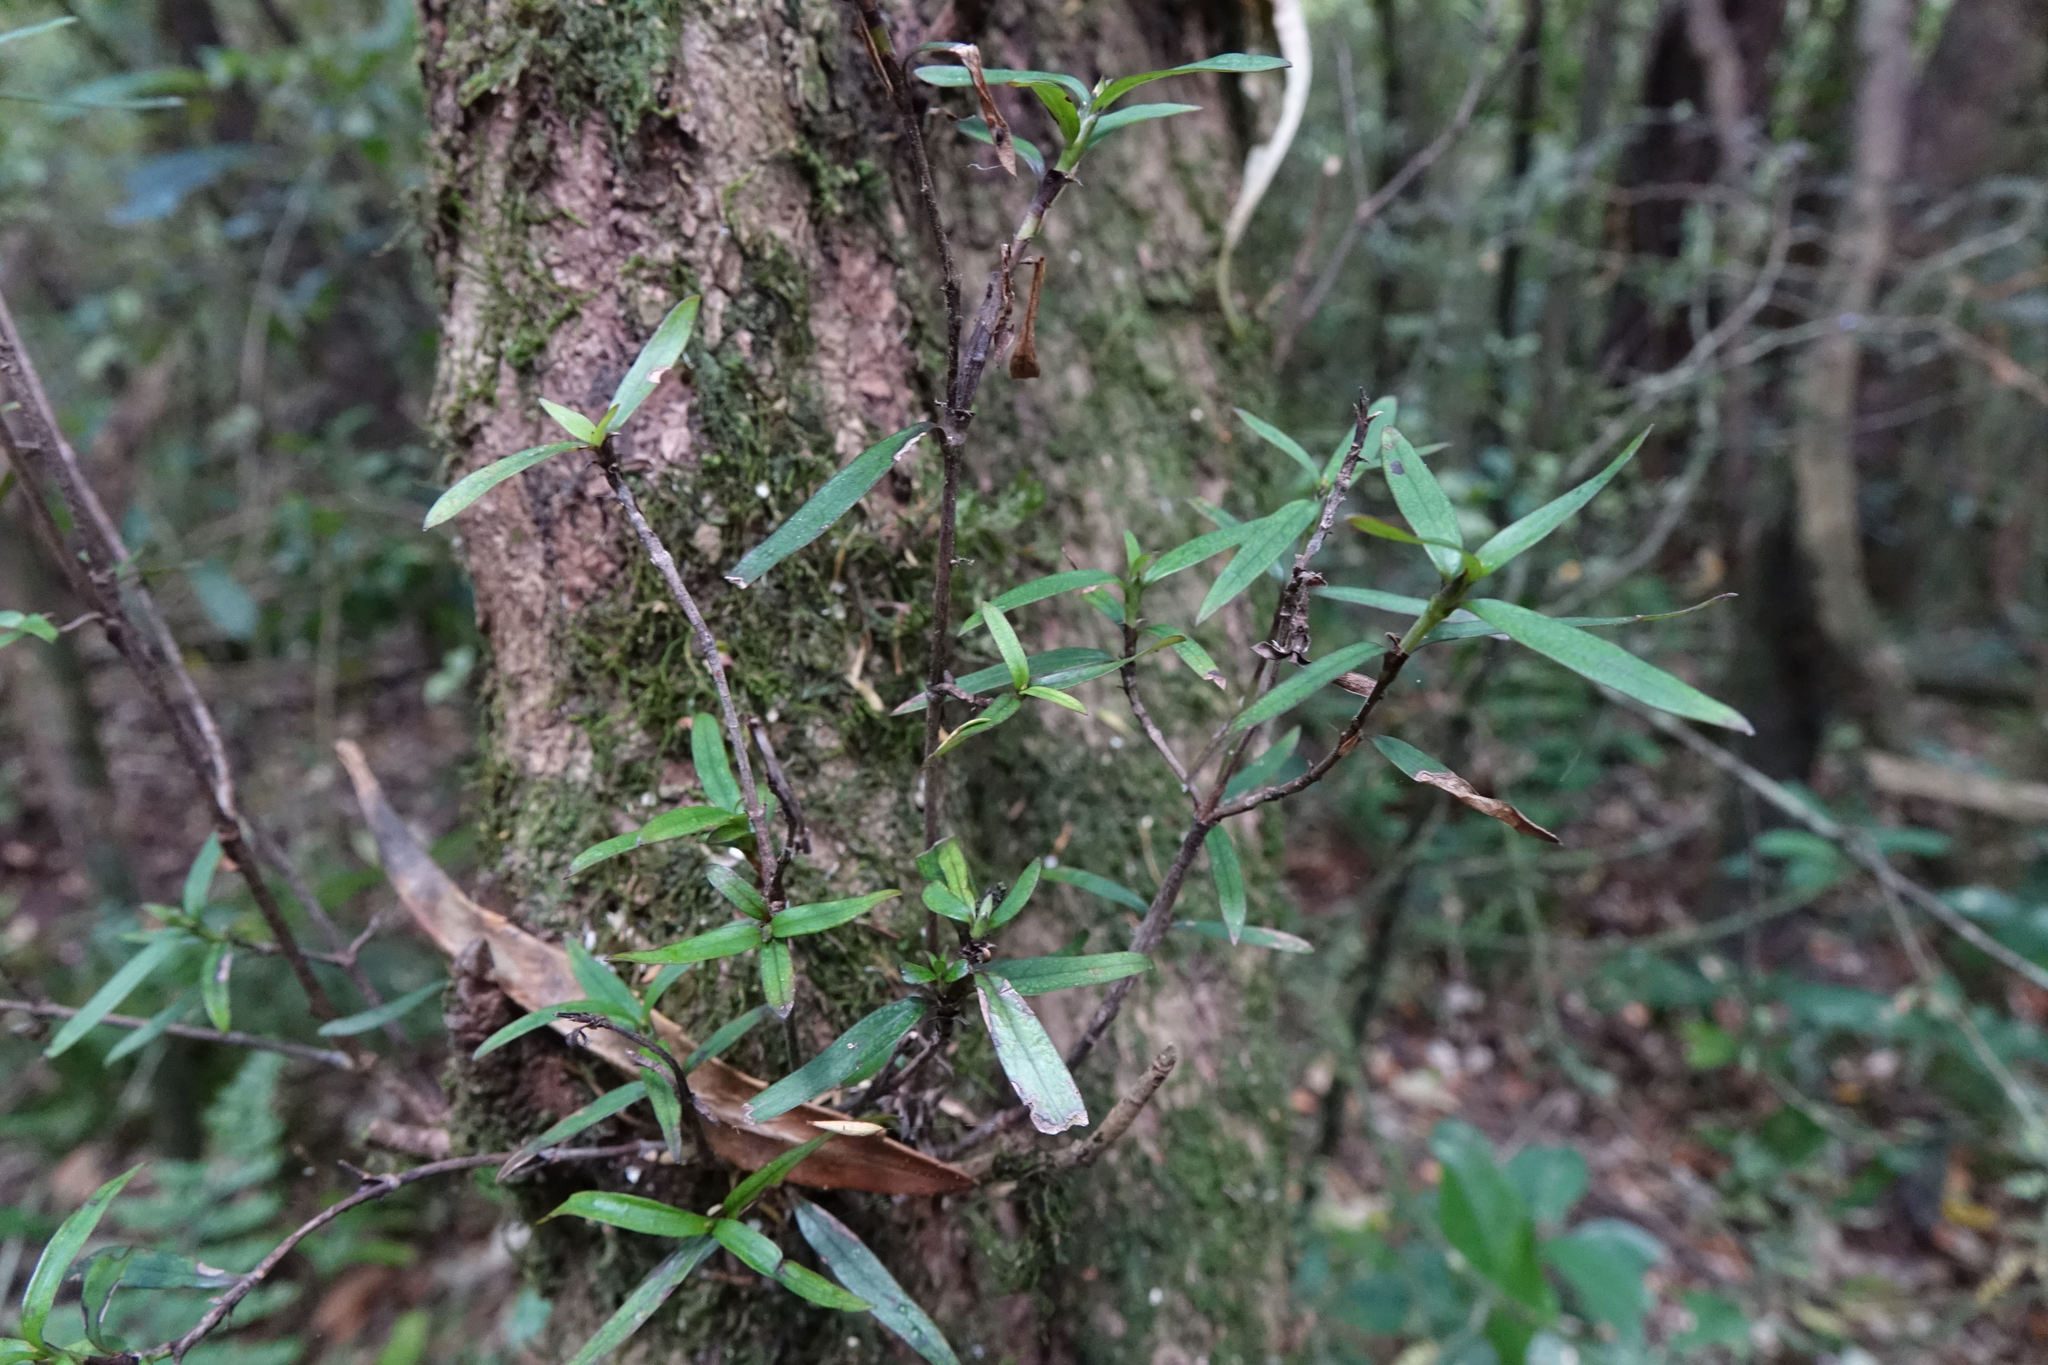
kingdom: Plantae
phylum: Tracheophyta
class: Magnoliopsida
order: Gentianales
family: Rubiaceae
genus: Coprosma
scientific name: Coprosma linariifolia
